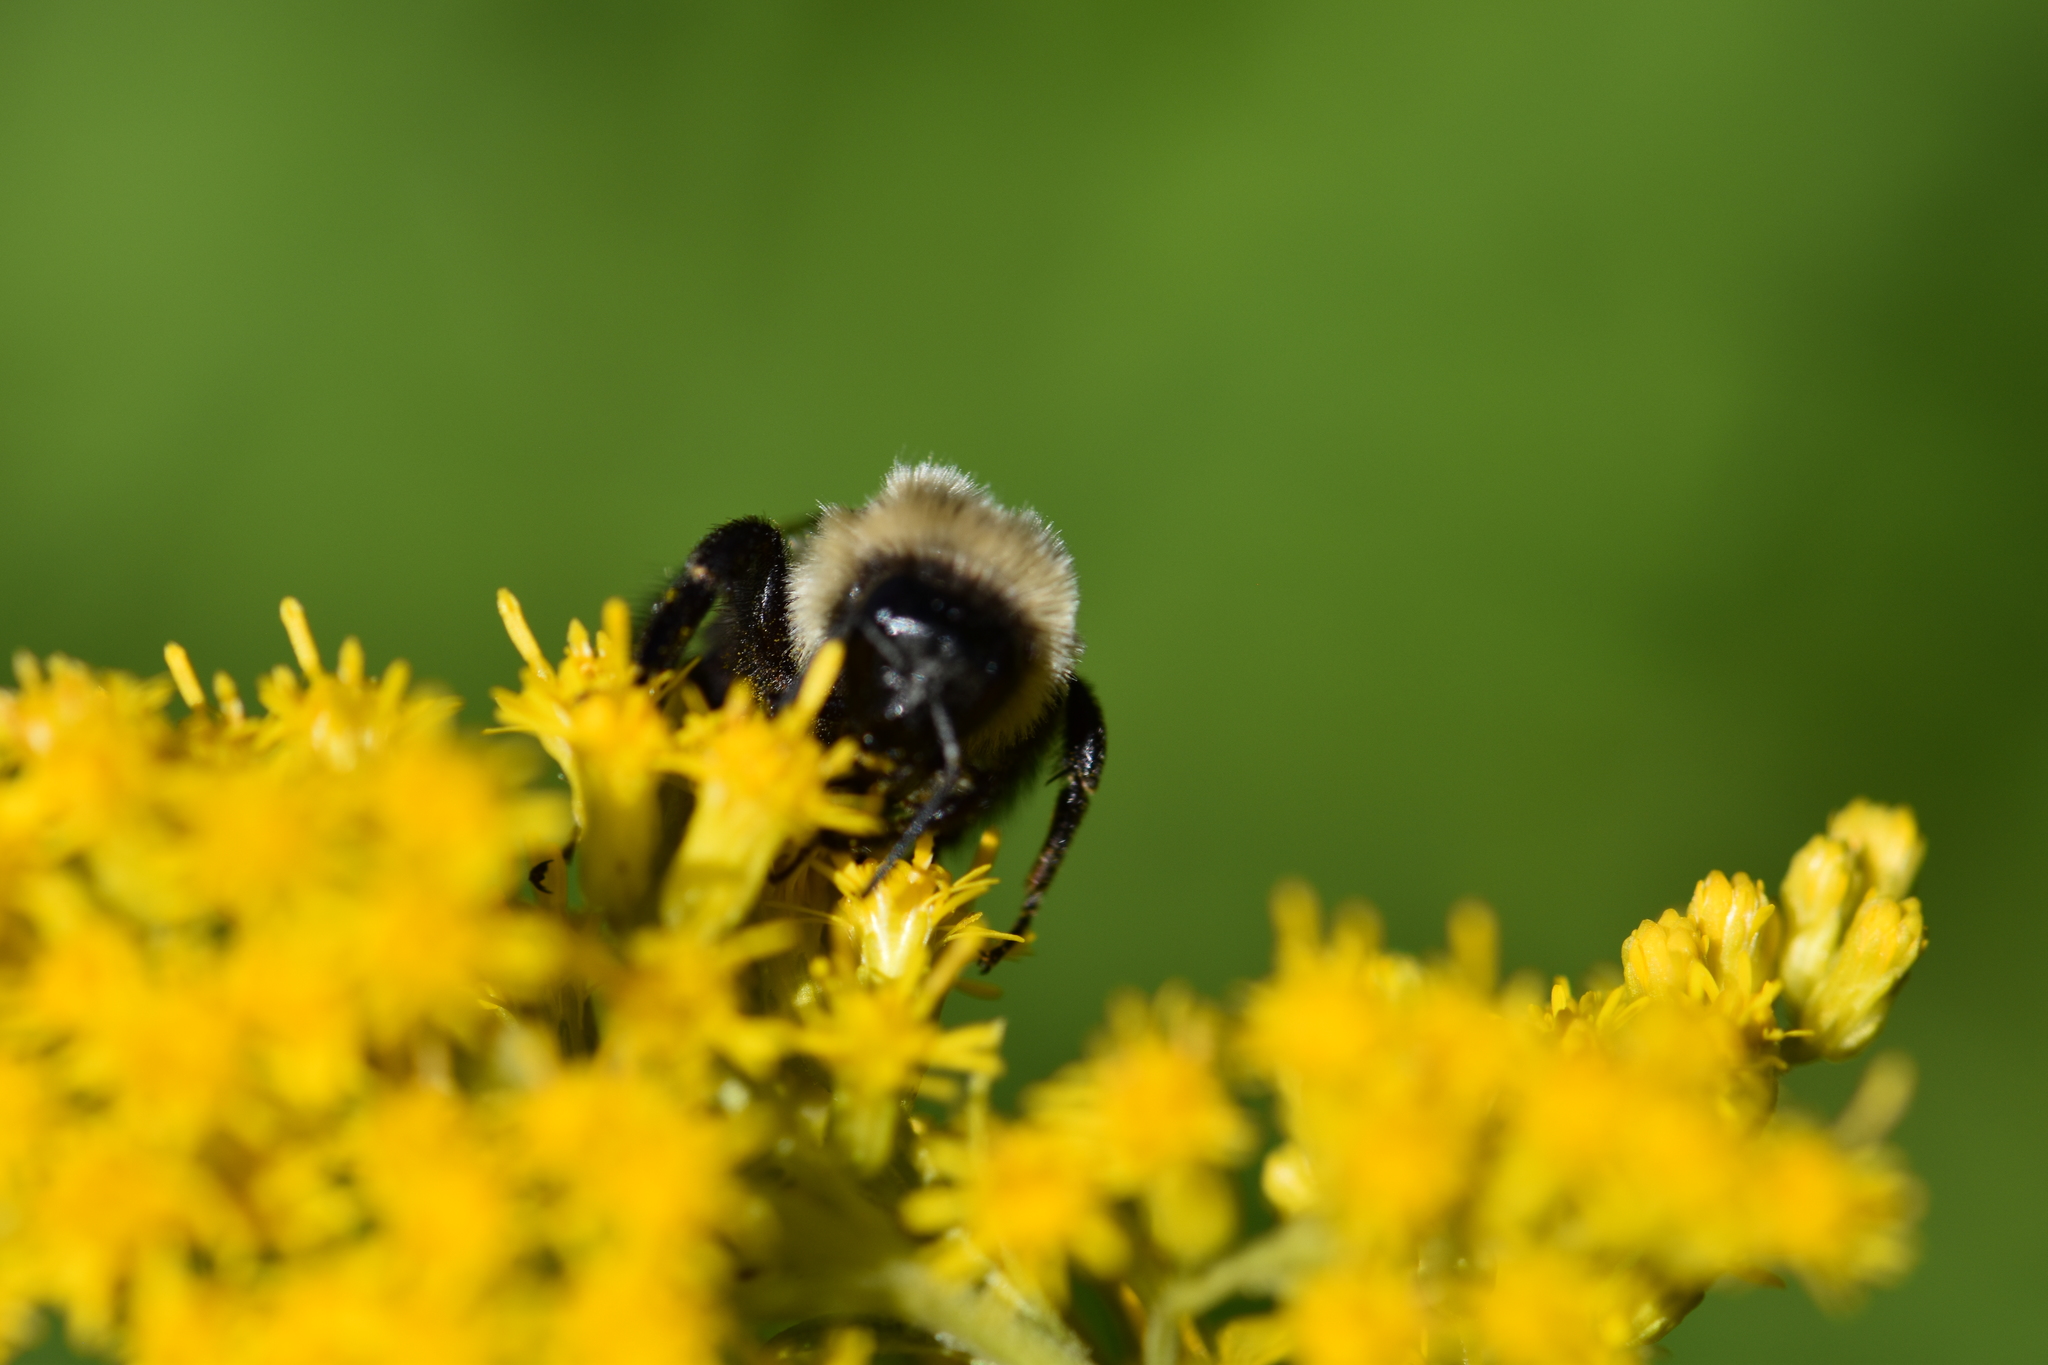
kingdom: Animalia
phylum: Arthropoda
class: Insecta
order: Hymenoptera
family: Apidae
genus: Bombus
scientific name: Bombus impatiens
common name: Common eastern bumble bee
